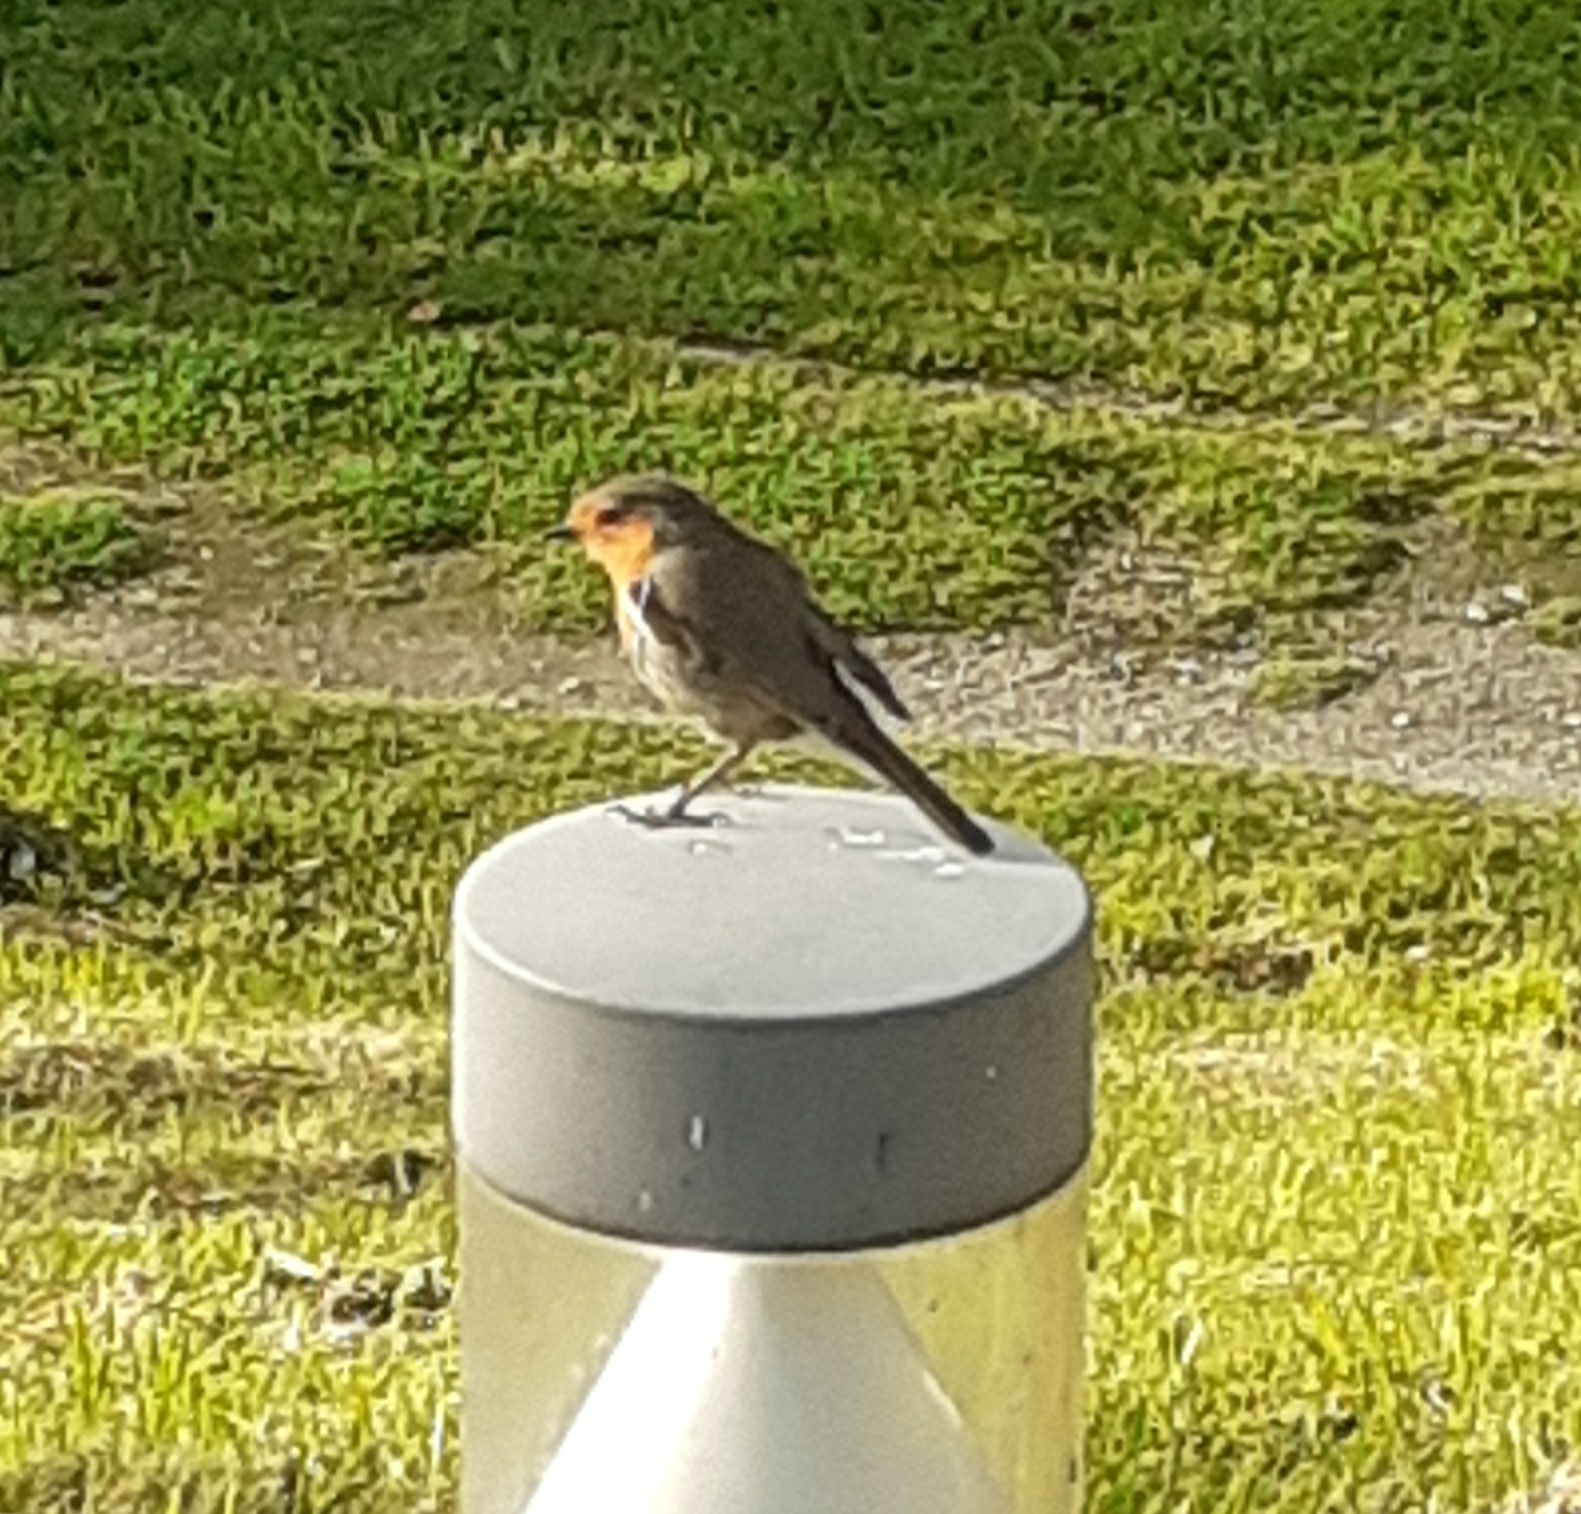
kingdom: Animalia
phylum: Chordata
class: Aves
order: Passeriformes
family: Muscicapidae
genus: Erithacus
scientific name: Erithacus rubecula
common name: European robin
